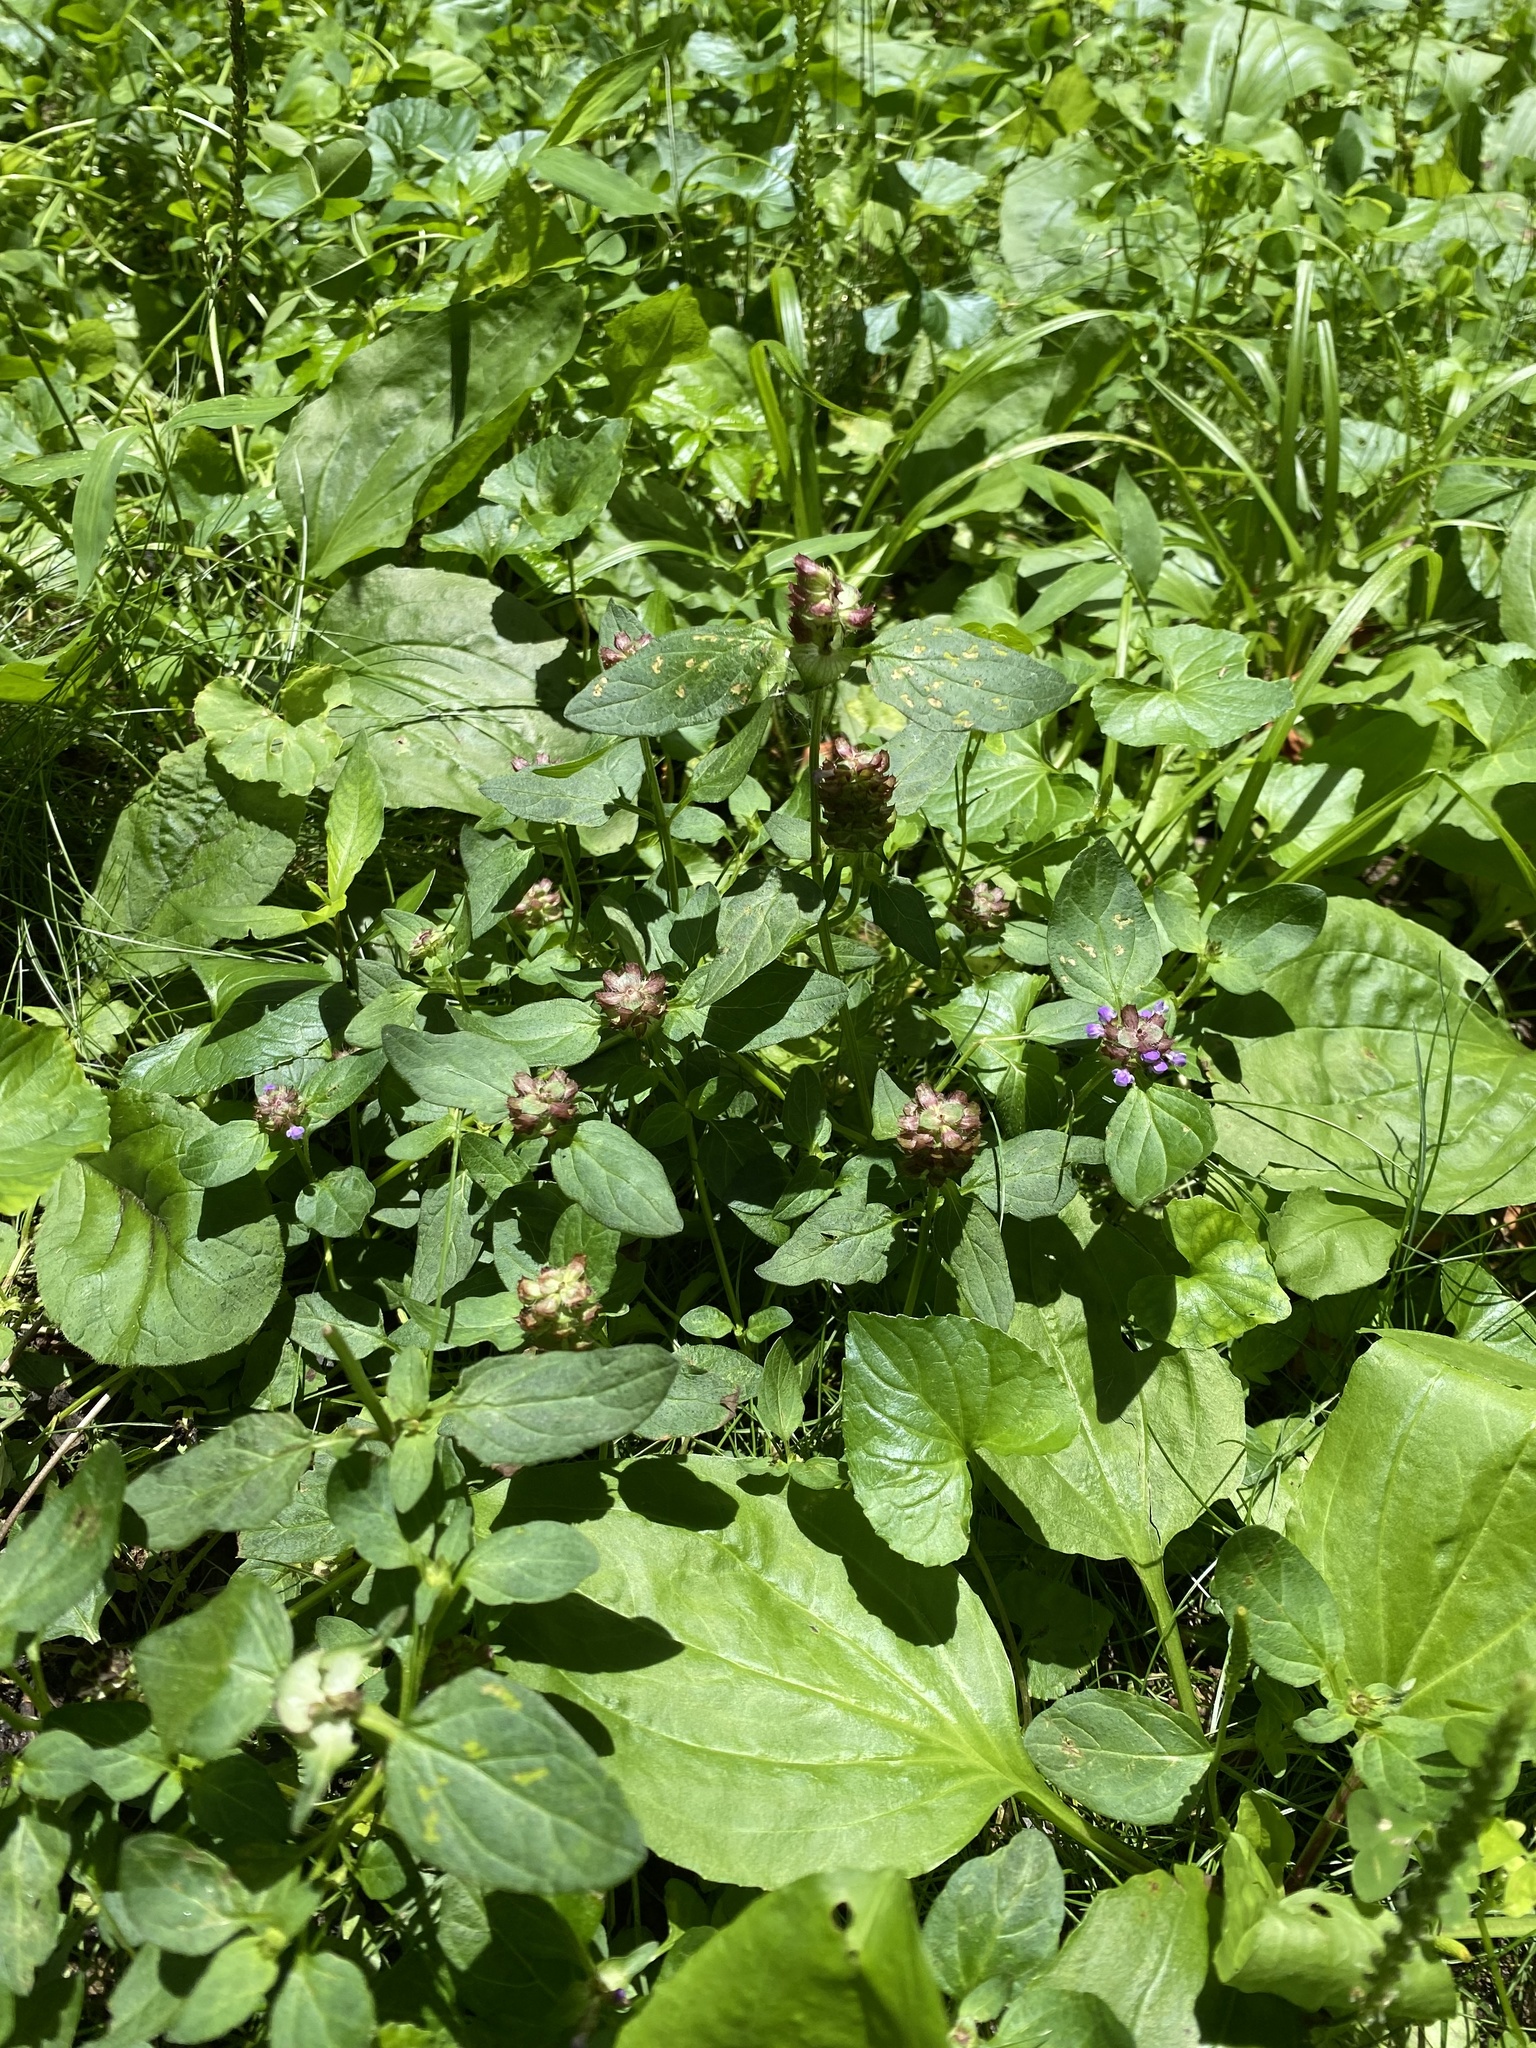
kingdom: Plantae
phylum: Tracheophyta
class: Magnoliopsida
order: Lamiales
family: Lamiaceae
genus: Prunella
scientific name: Prunella vulgaris
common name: Heal-all
